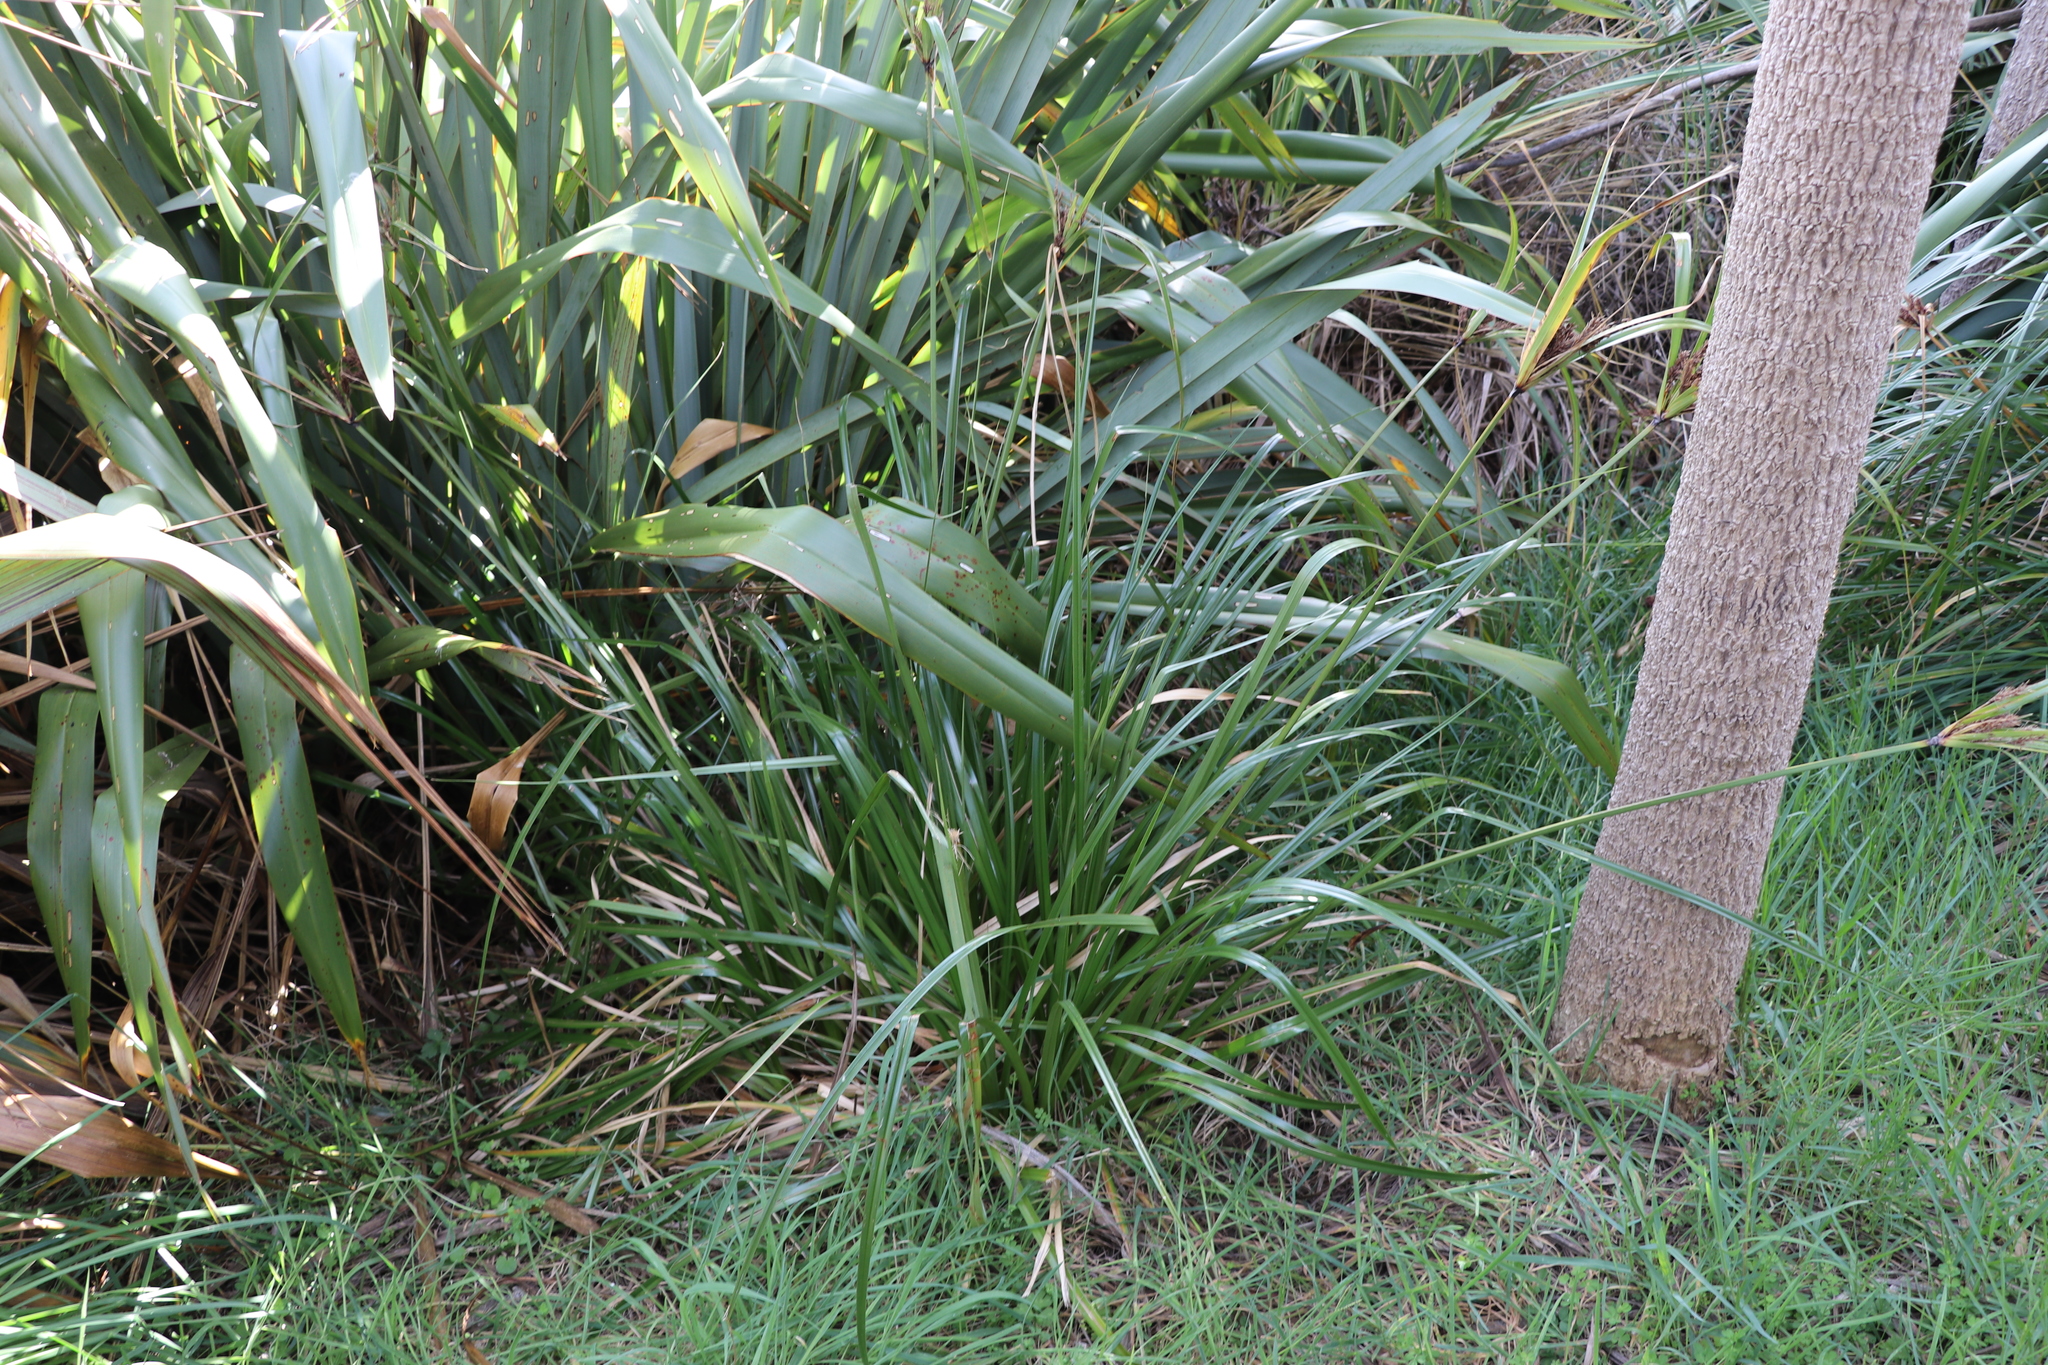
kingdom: Plantae
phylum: Tracheophyta
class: Liliopsida
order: Poales
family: Cyperaceae
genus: Cyperus
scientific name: Cyperus ustulatus
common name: Giant umbrella-sedge
